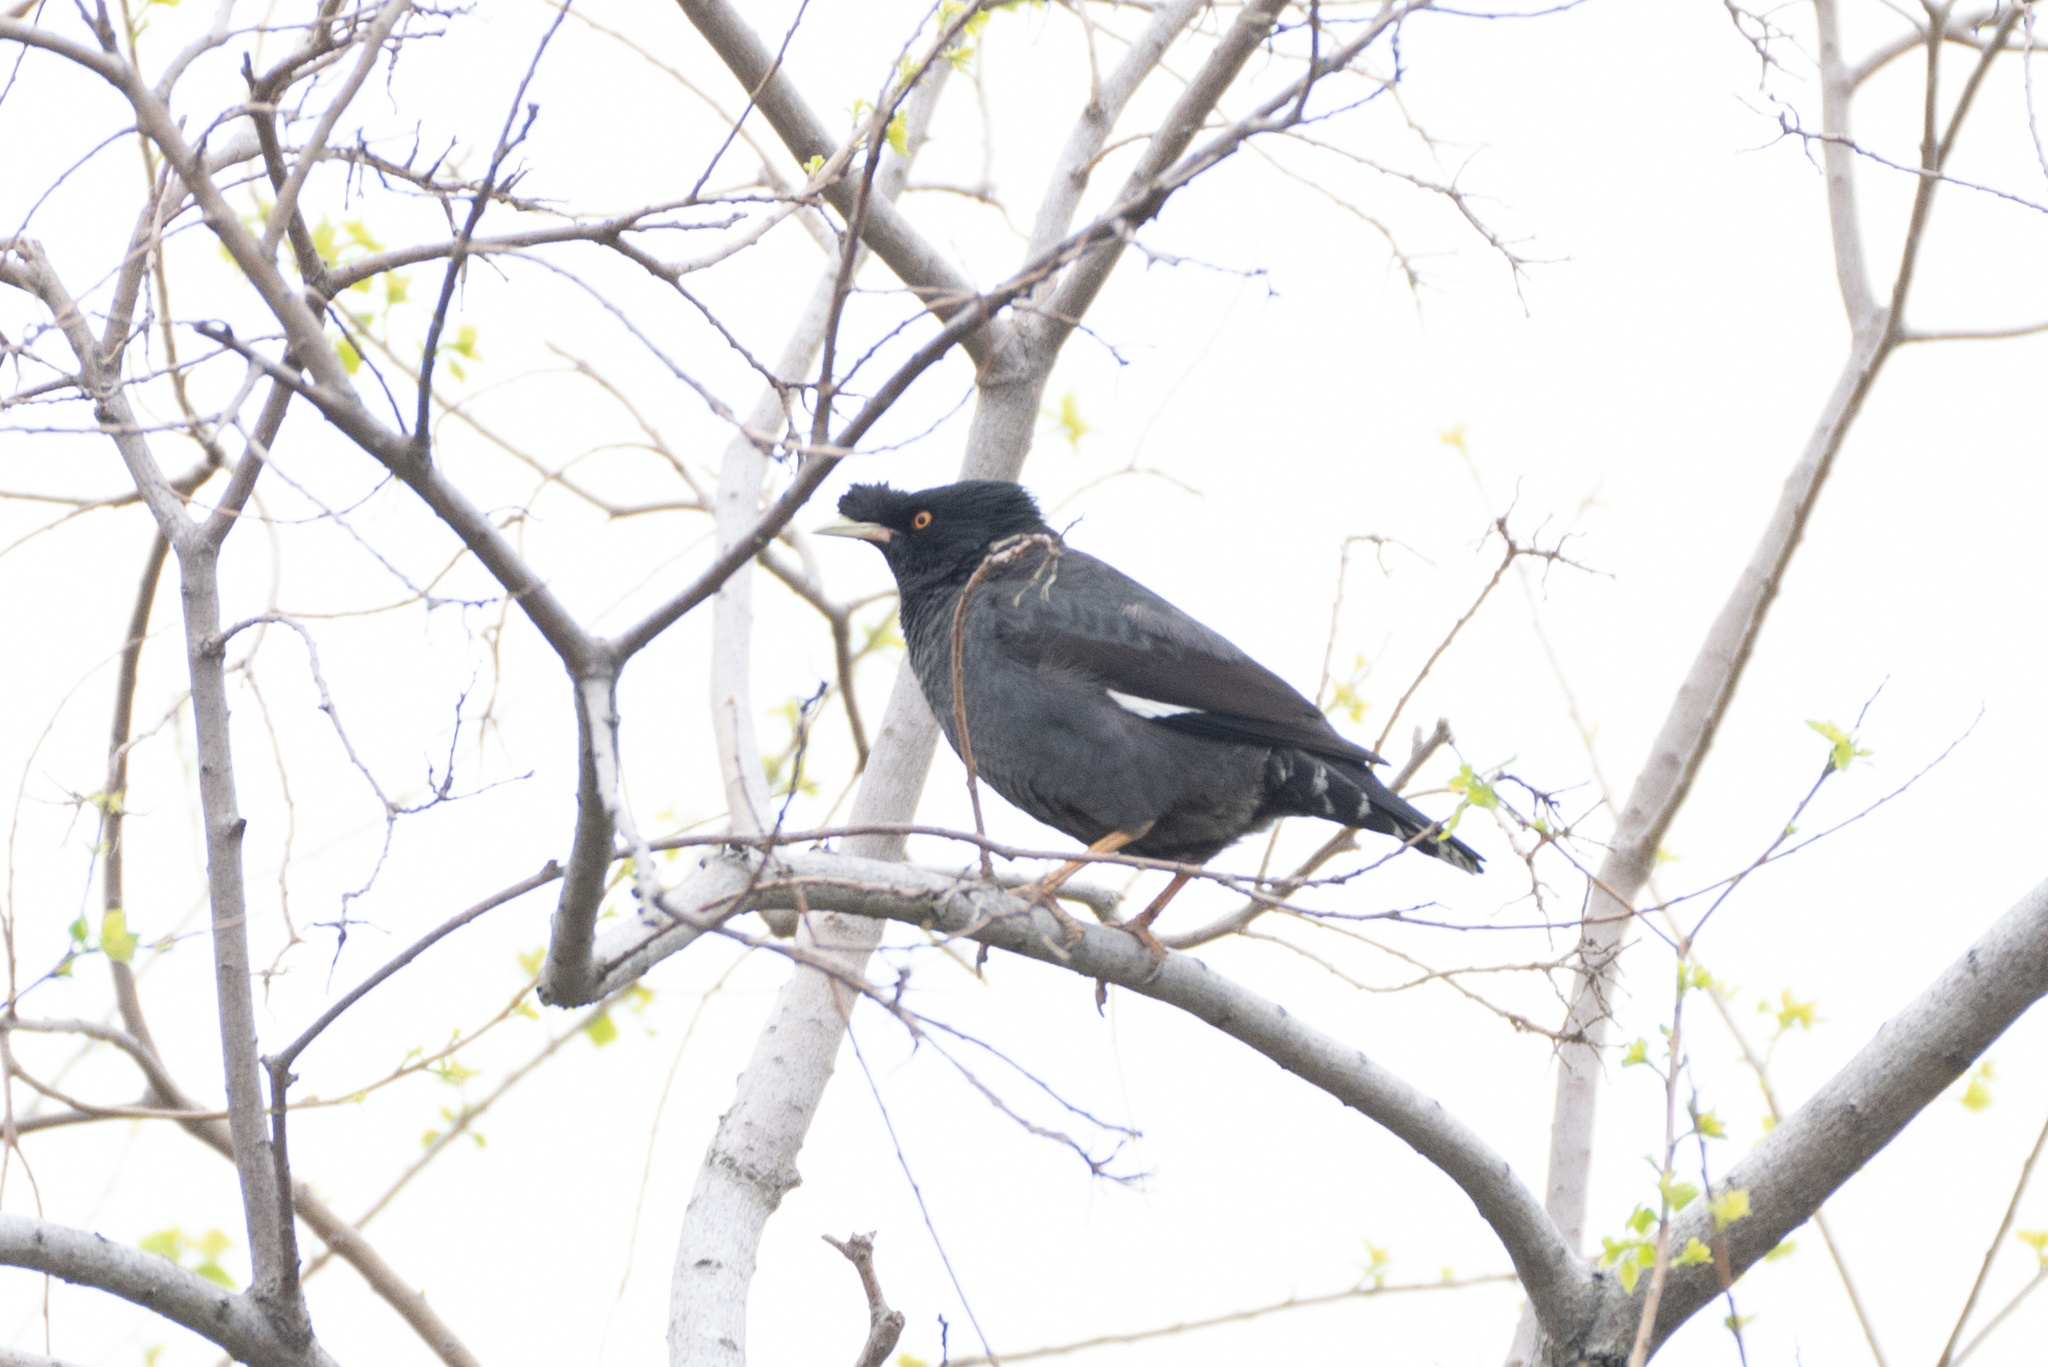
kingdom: Animalia
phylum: Chordata
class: Aves
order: Passeriformes
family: Sturnidae
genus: Acridotheres
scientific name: Acridotheres cristatellus
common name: Crested myna
